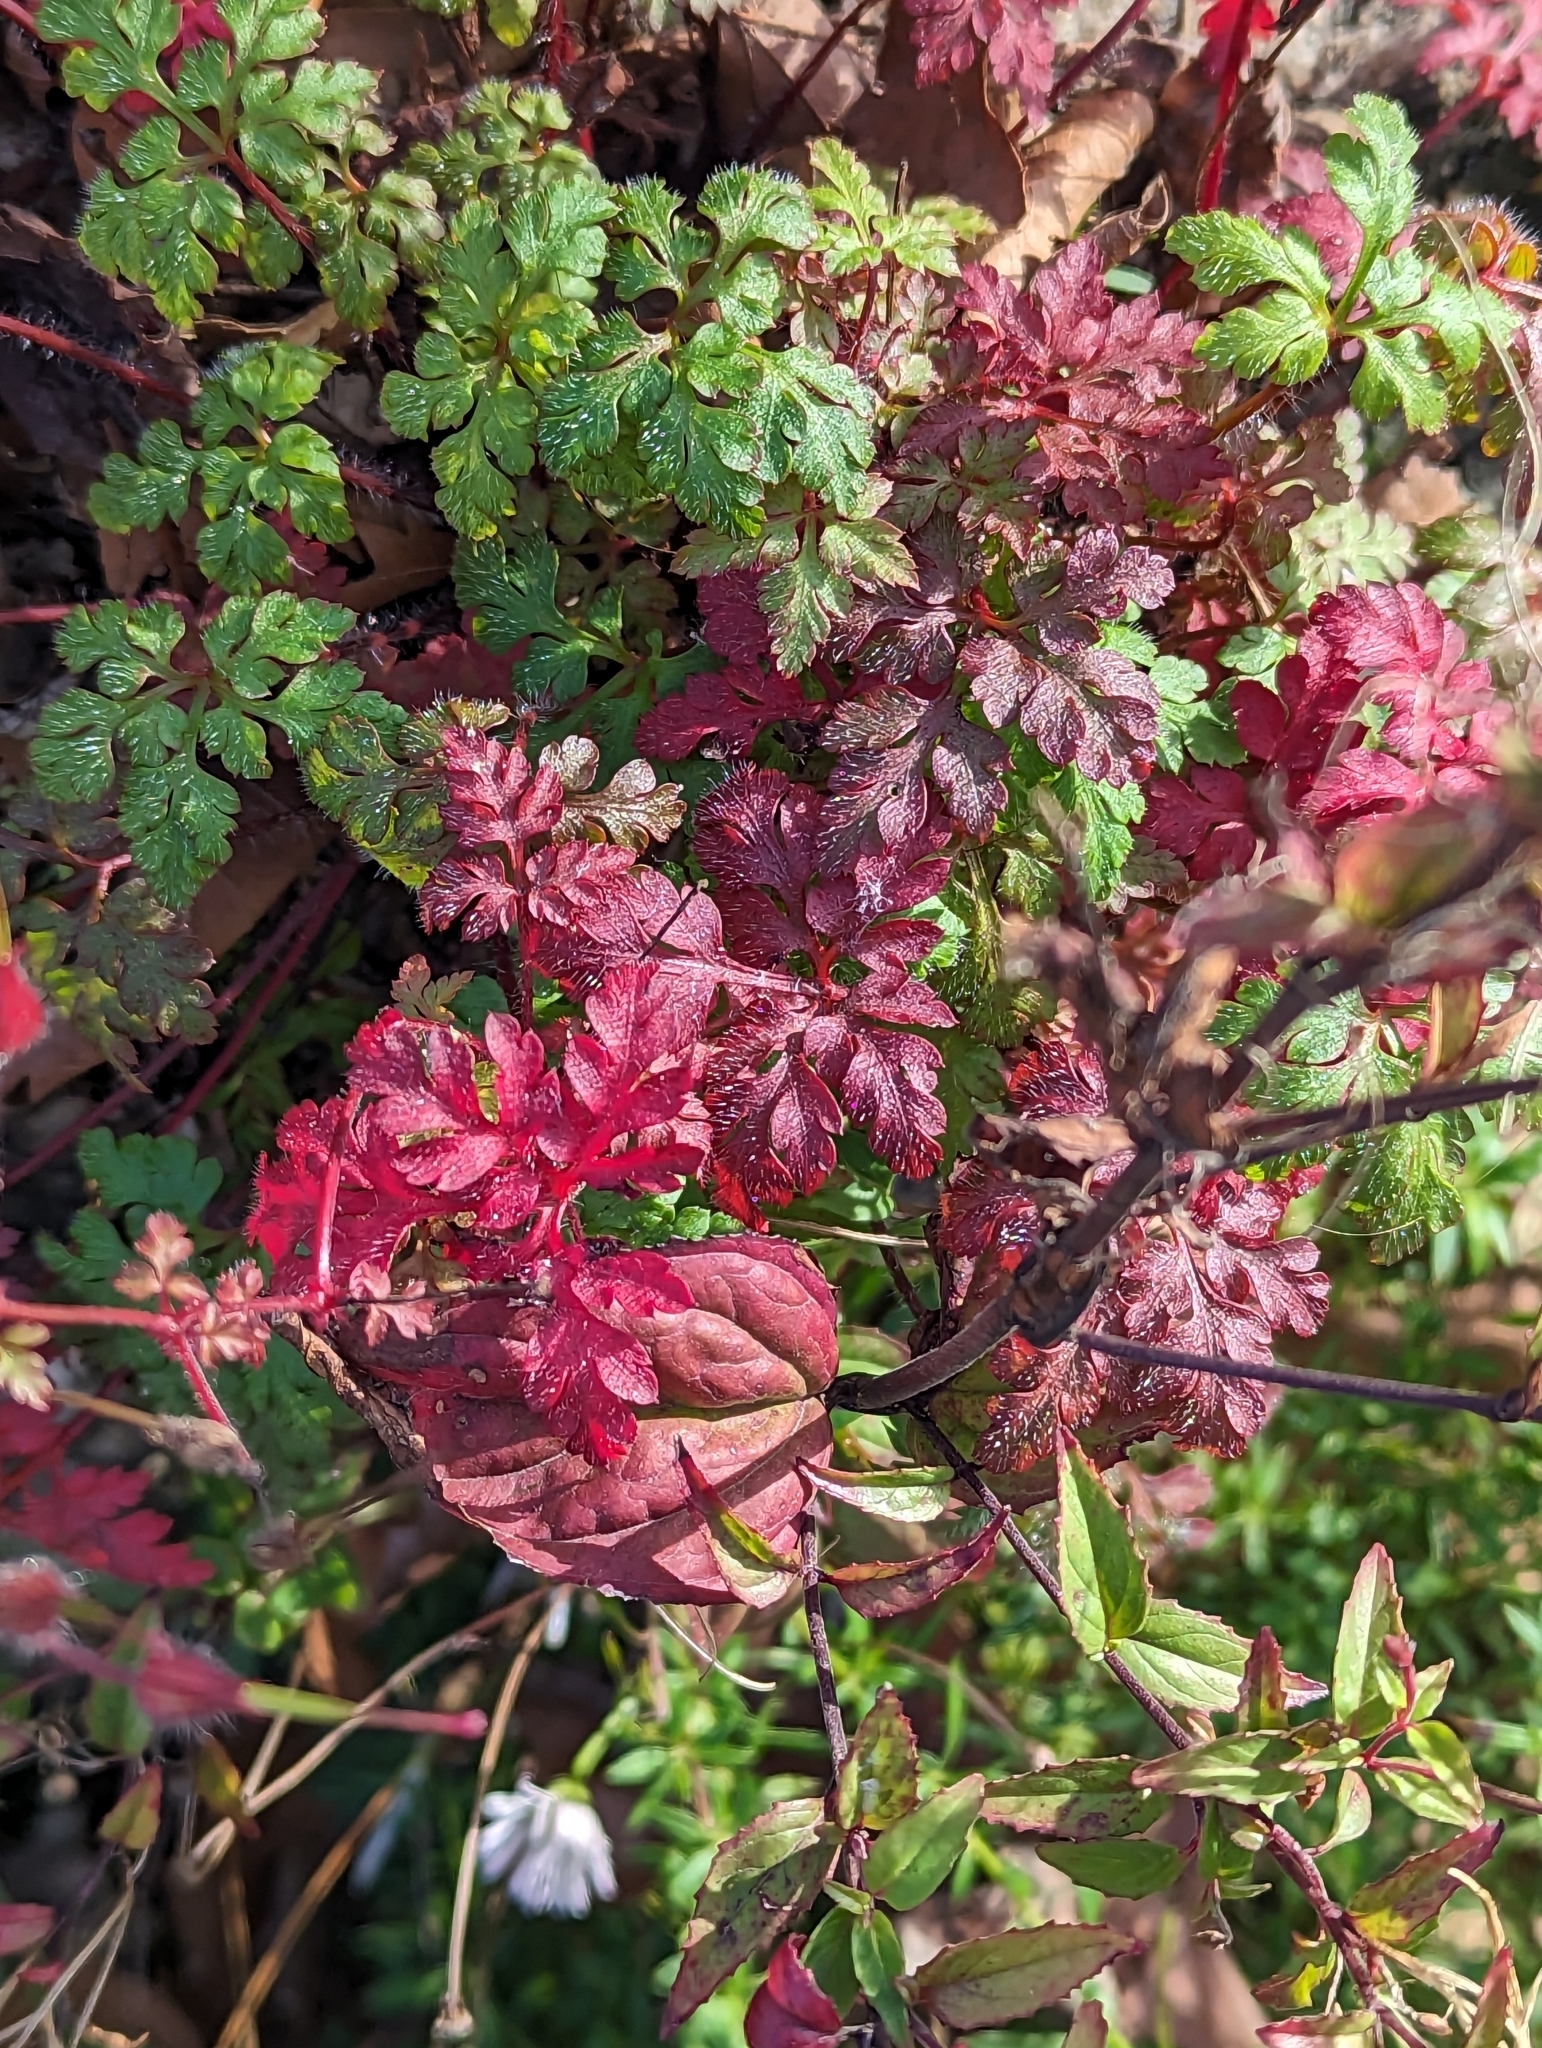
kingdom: Plantae
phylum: Tracheophyta
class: Magnoliopsida
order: Geraniales
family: Geraniaceae
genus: Geranium
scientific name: Geranium robertianum
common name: Herb-robert
